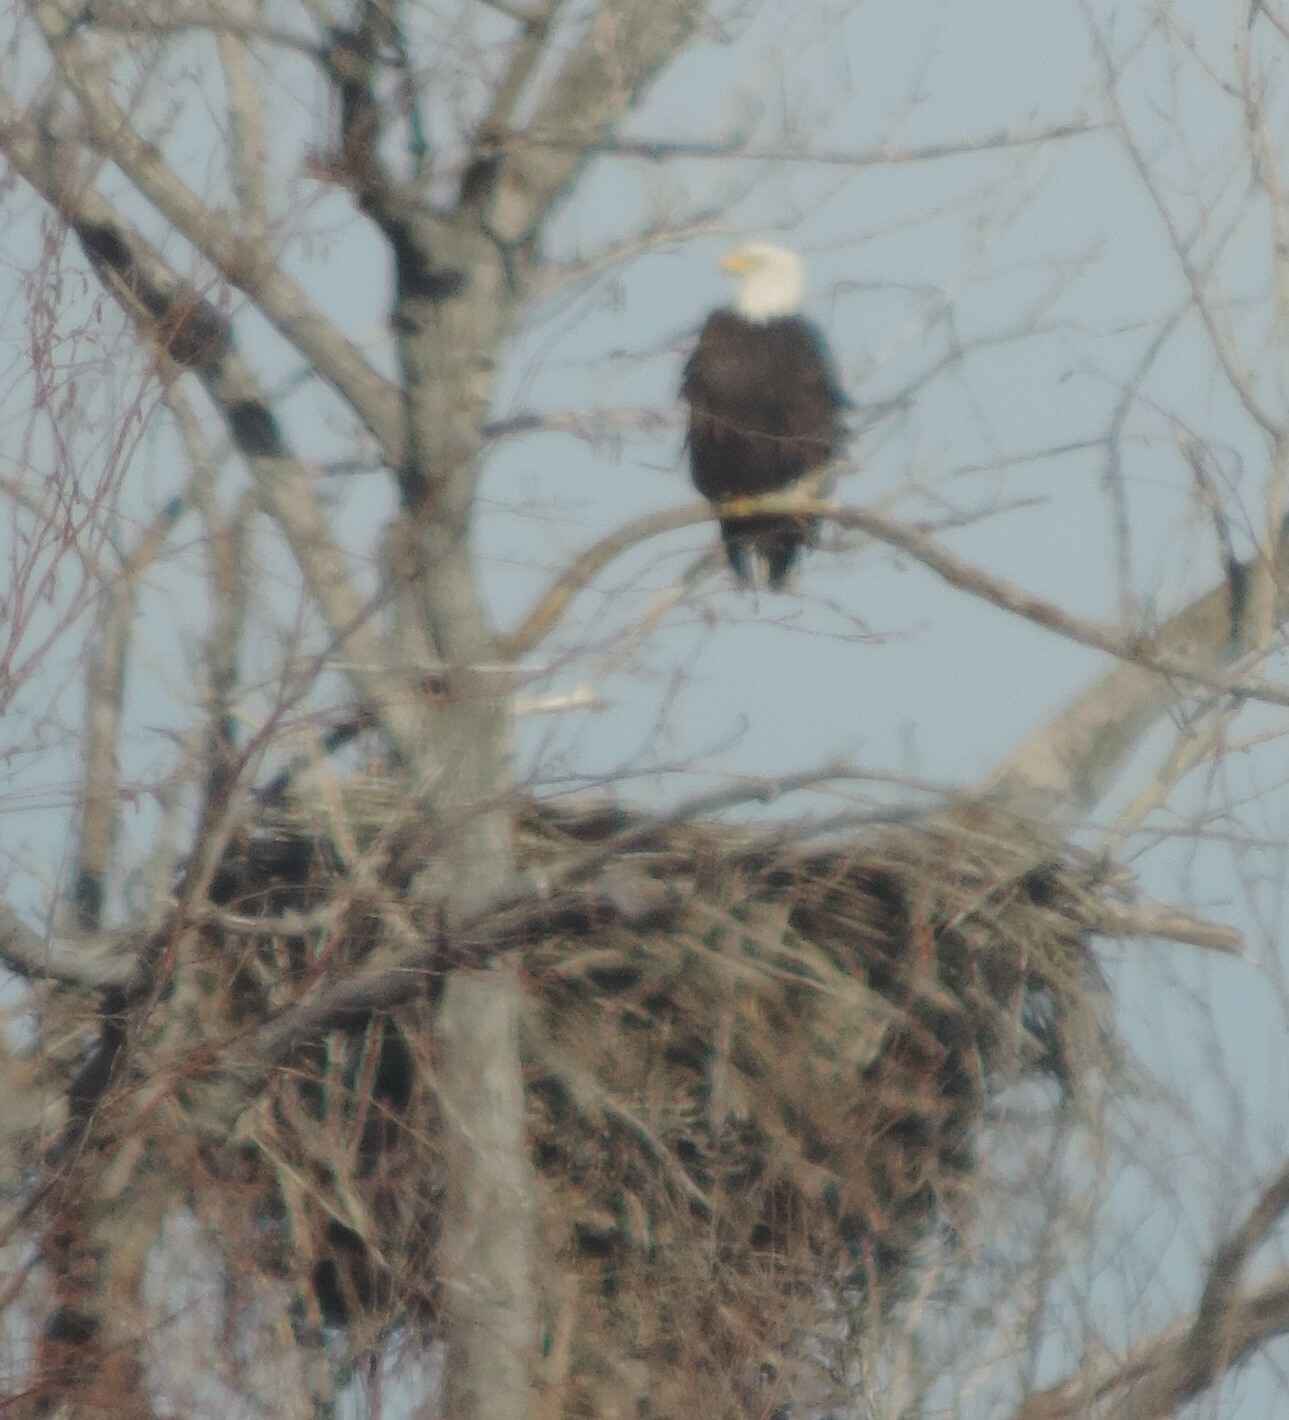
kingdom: Animalia
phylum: Chordata
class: Aves
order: Accipitriformes
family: Accipitridae
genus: Haliaeetus
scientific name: Haliaeetus leucocephalus
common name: Bald eagle
